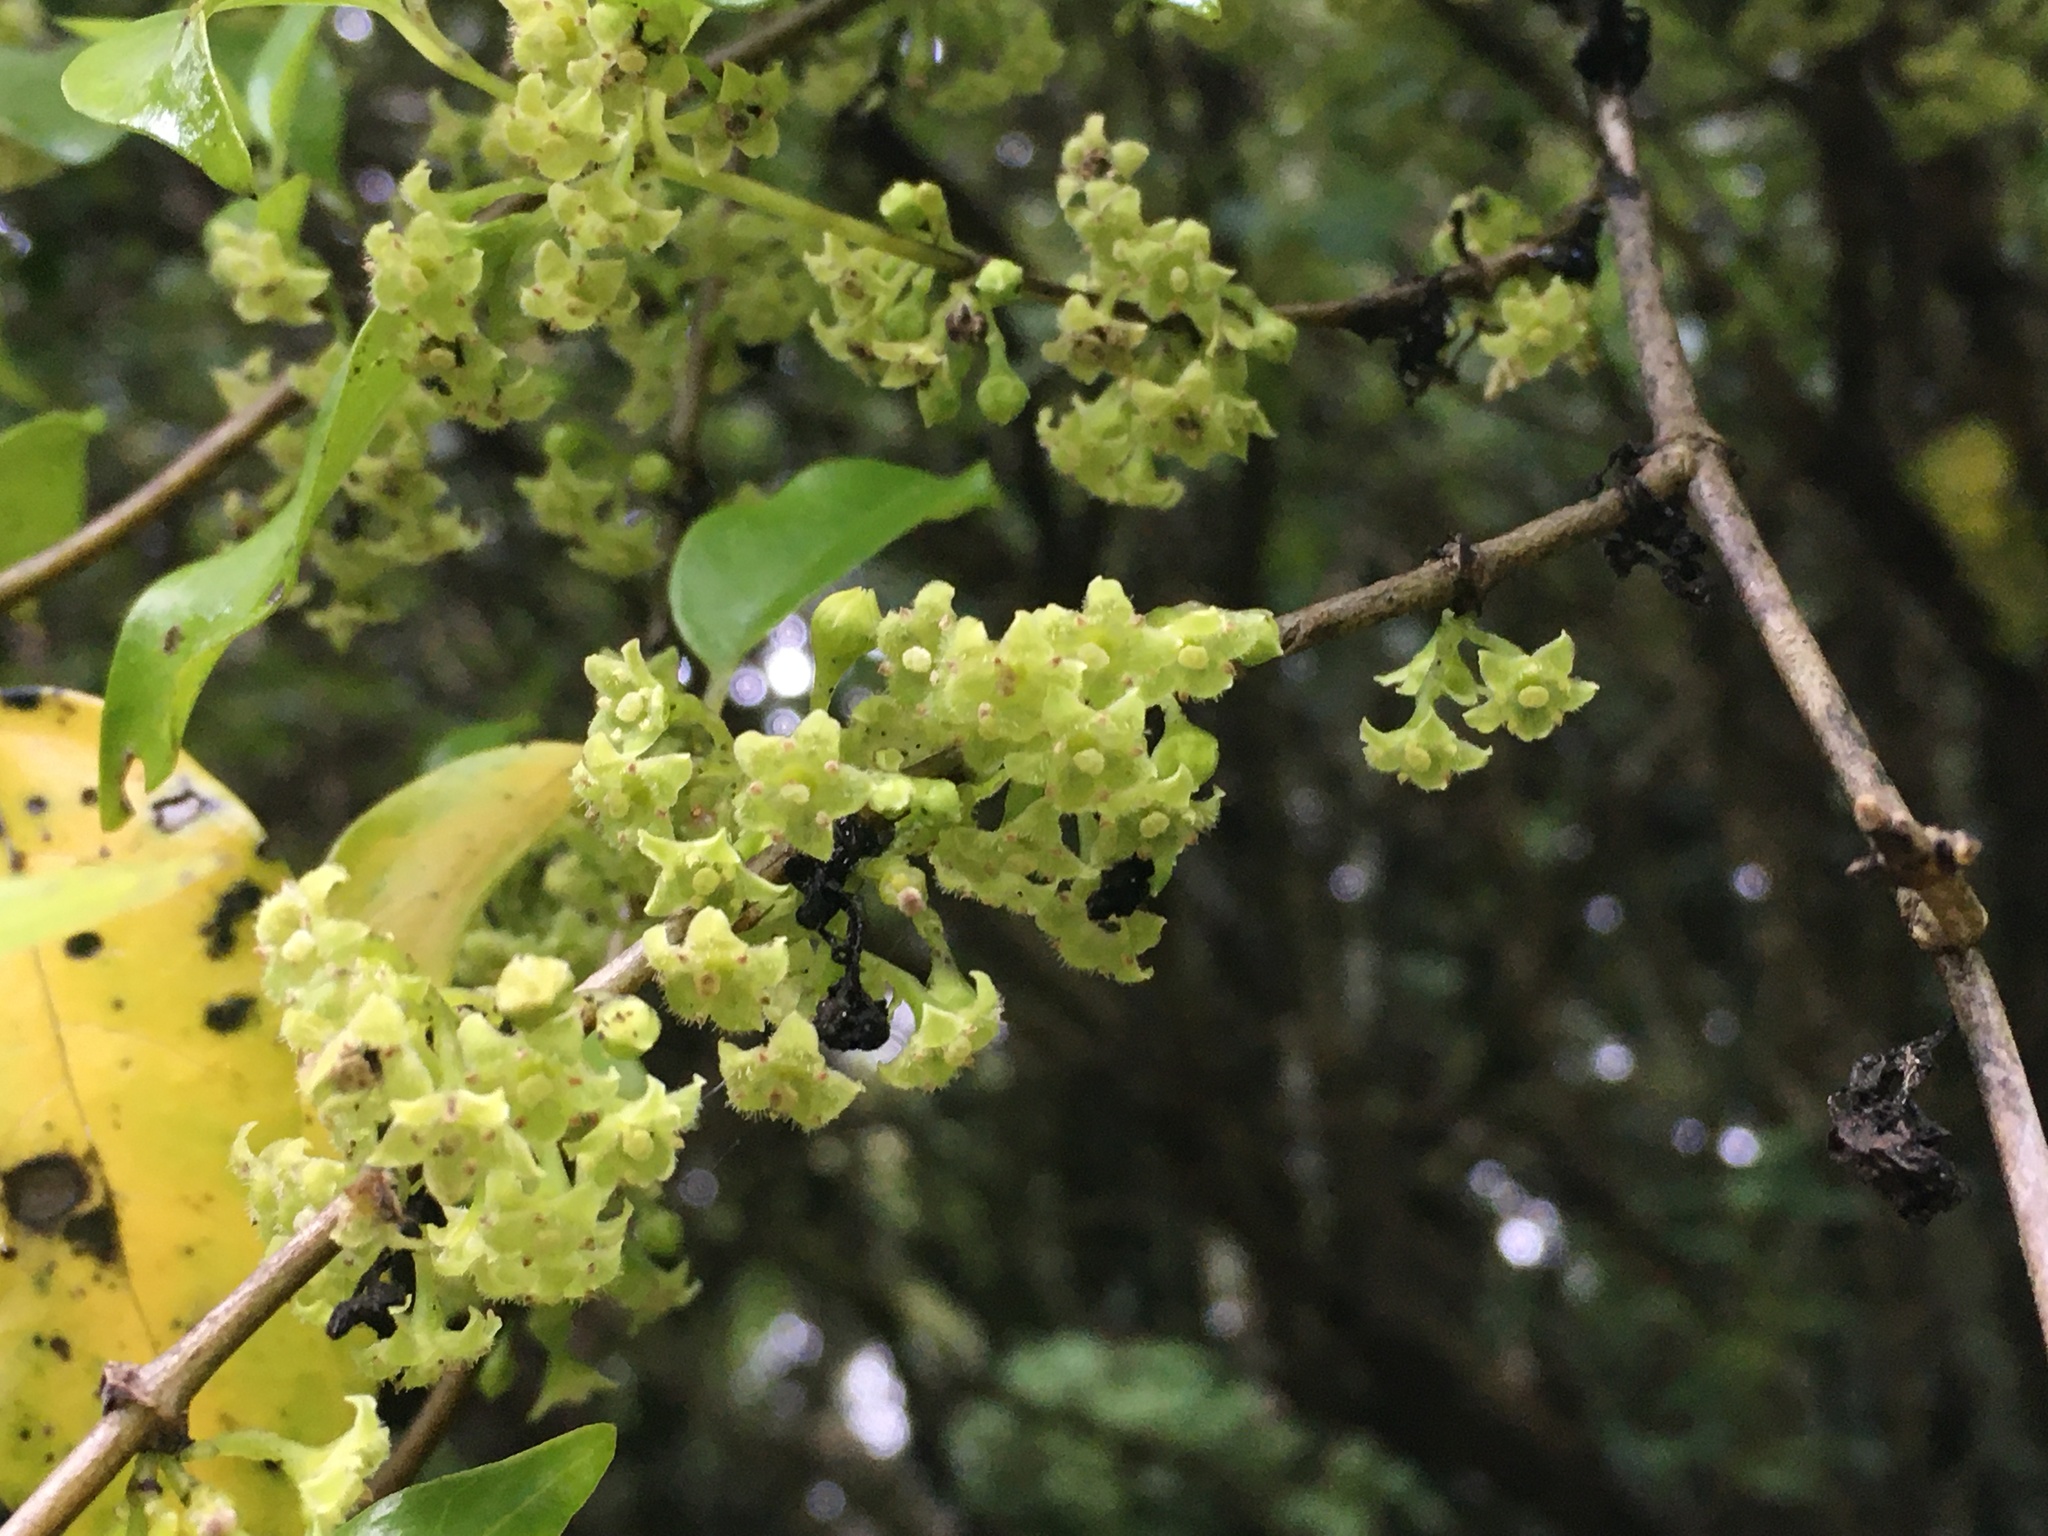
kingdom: Plantae
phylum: Tracheophyta
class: Magnoliopsida
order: Gentianales
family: Loganiaceae
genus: Geniostoma
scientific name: Geniostoma ligustrifolium
